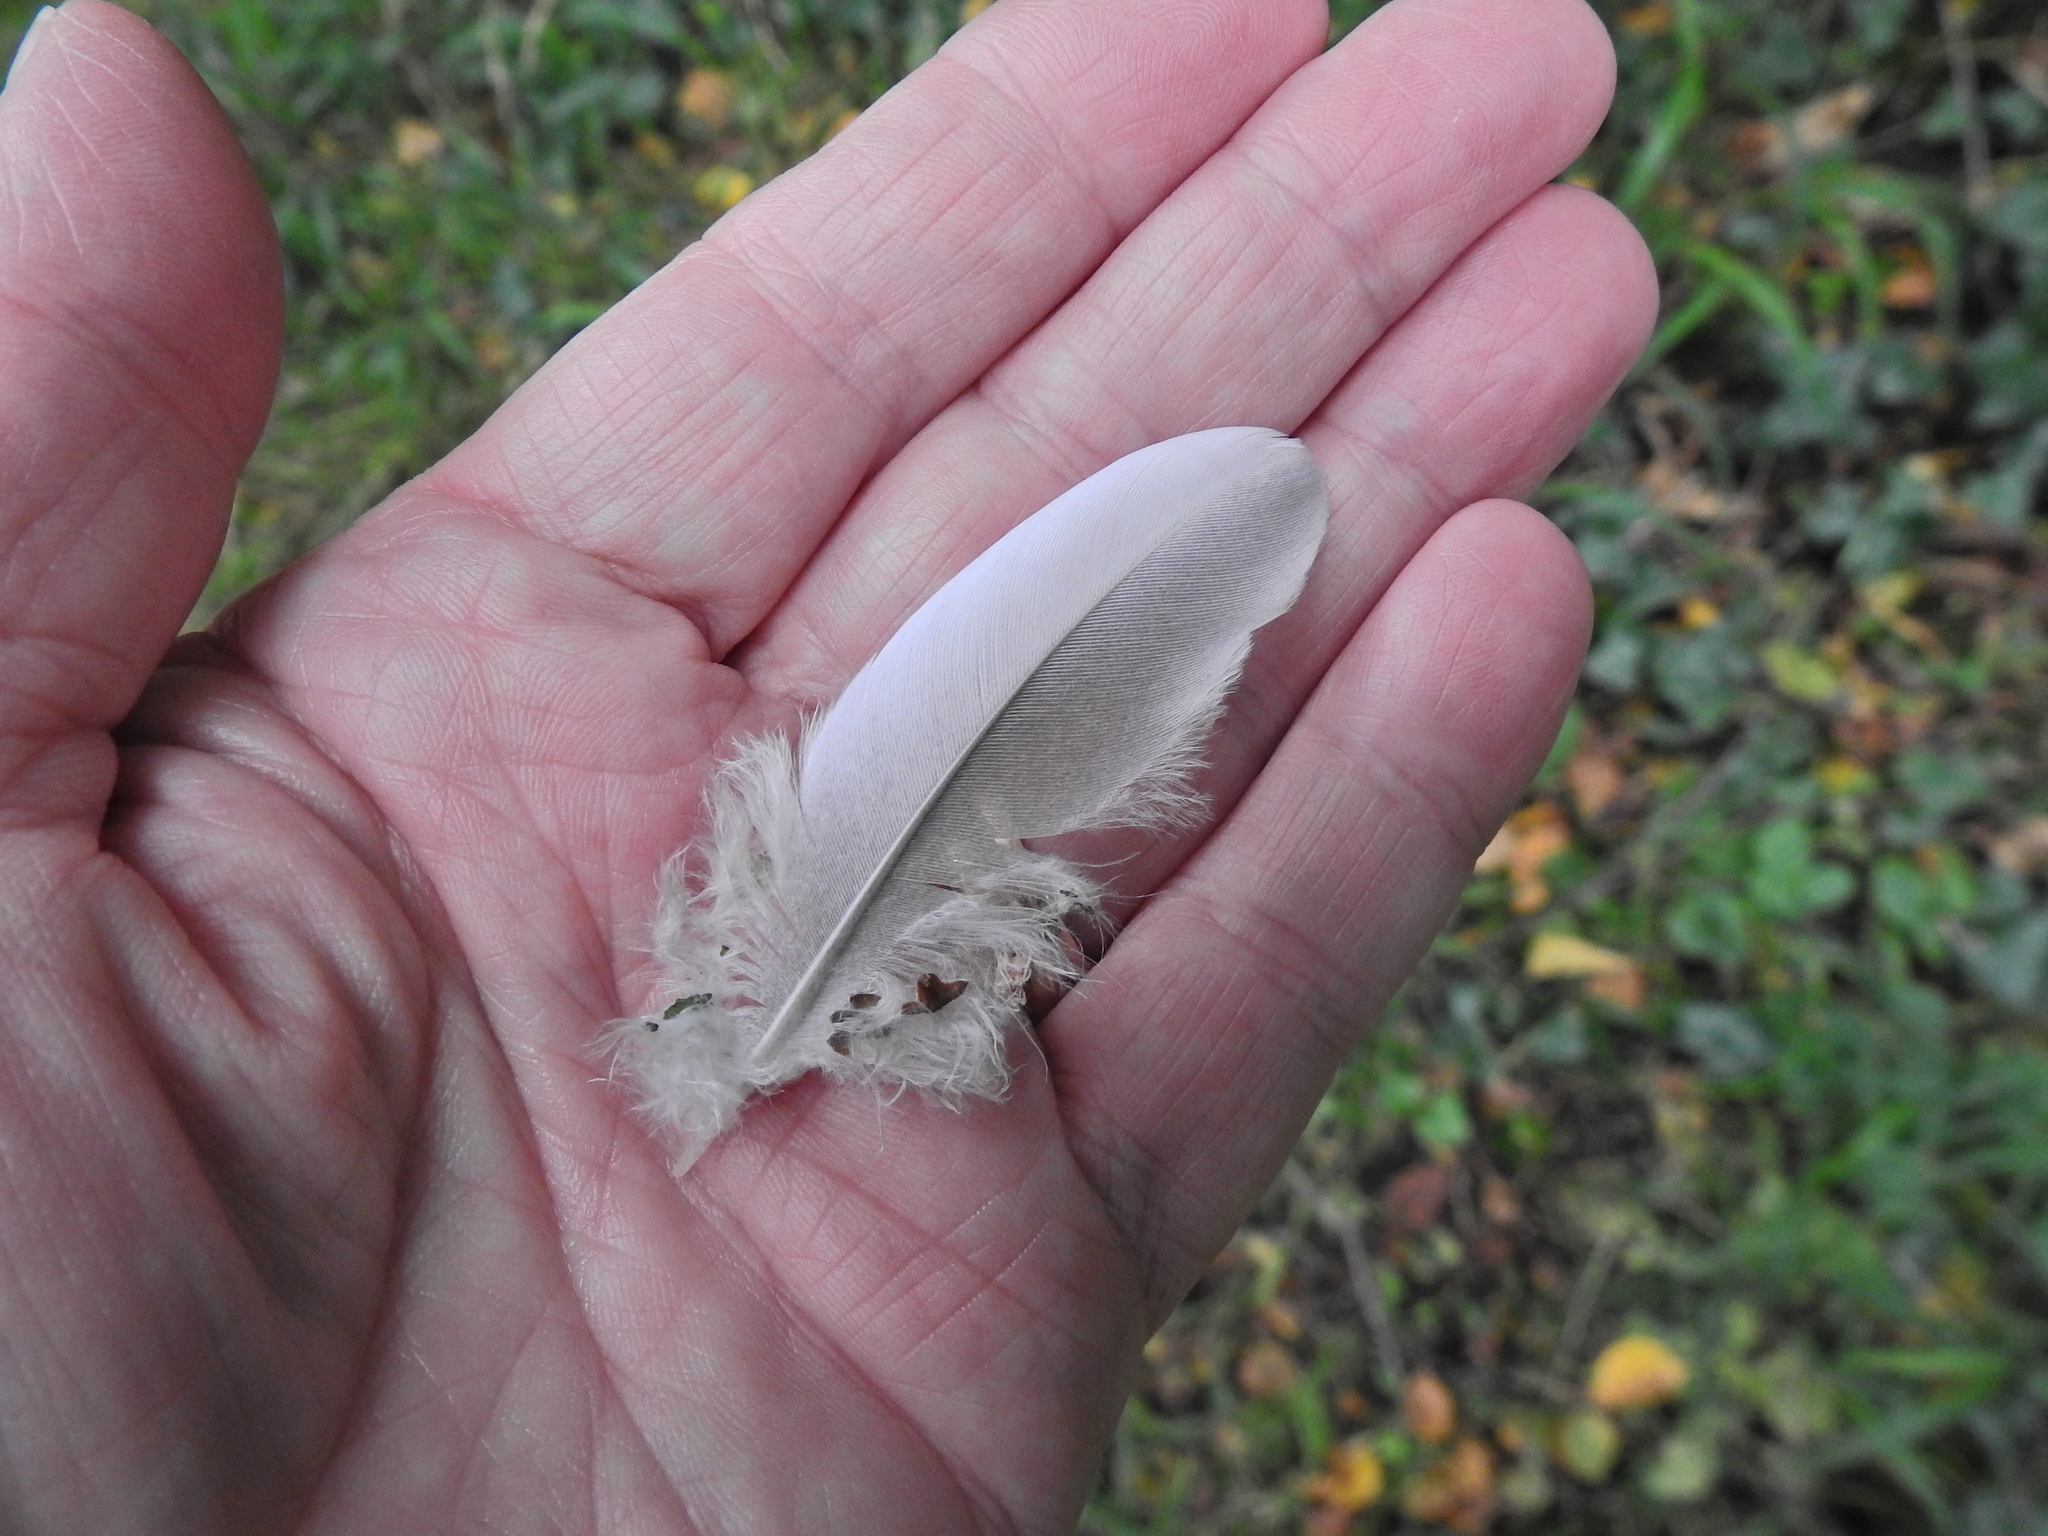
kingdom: Animalia
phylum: Chordata
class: Aves
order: Columbiformes
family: Columbidae
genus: Columba
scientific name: Columba palumbus
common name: Common wood pigeon
